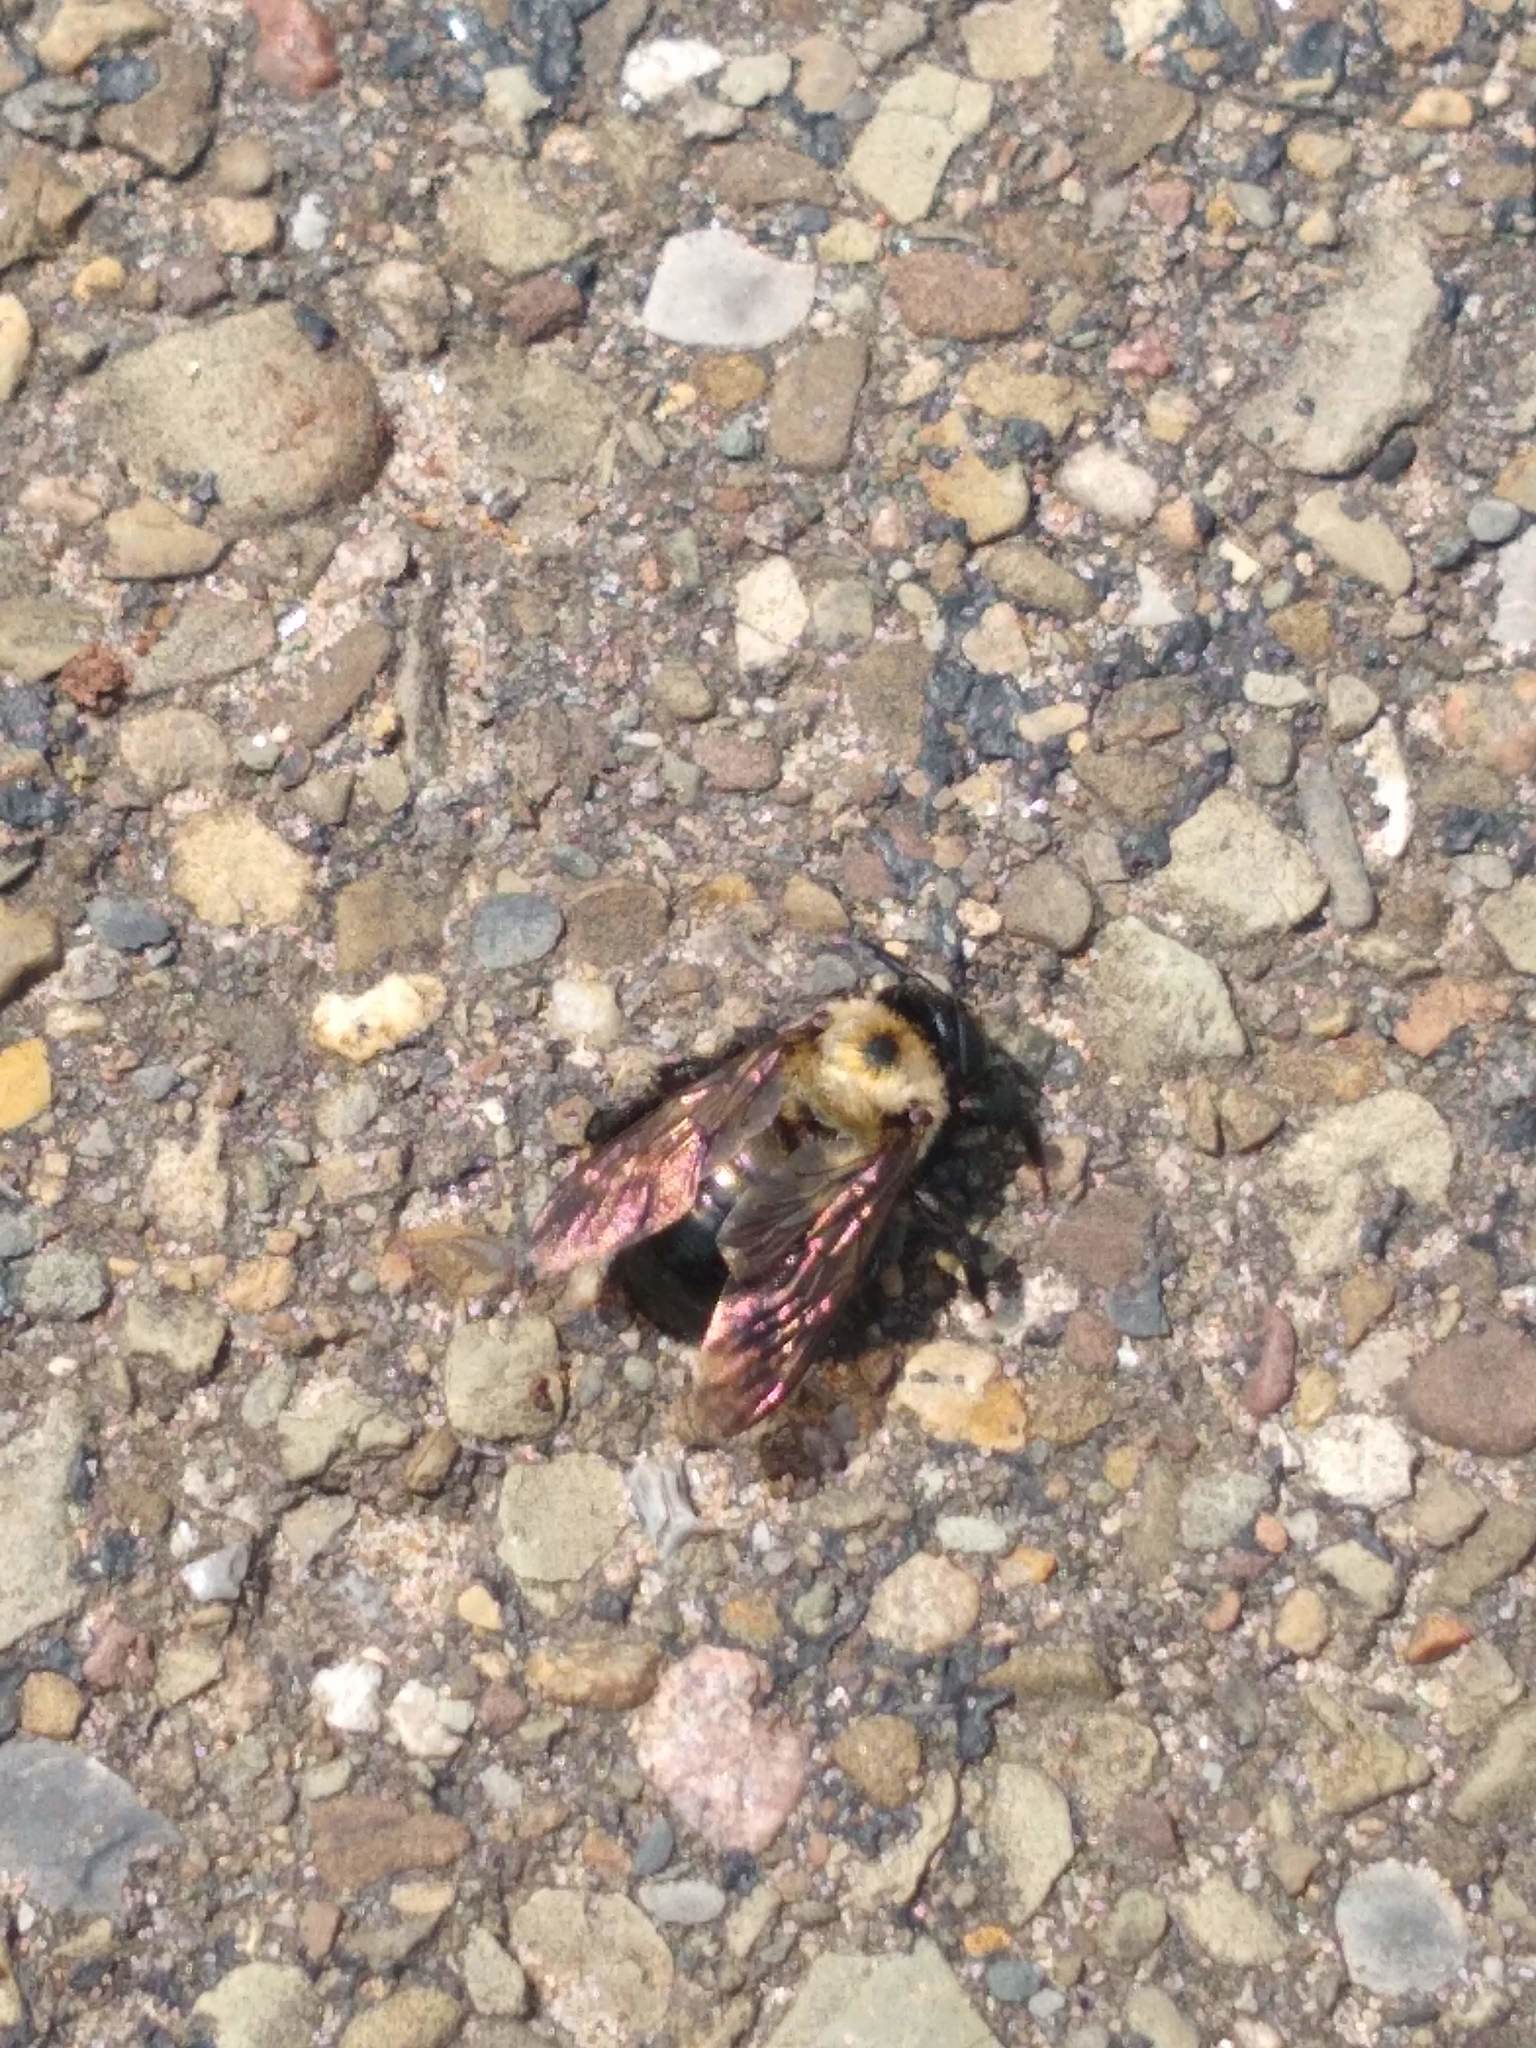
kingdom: Animalia
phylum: Arthropoda
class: Insecta
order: Hymenoptera
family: Apidae
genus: Xylocopa
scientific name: Xylocopa virginica
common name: Carpenter bee
